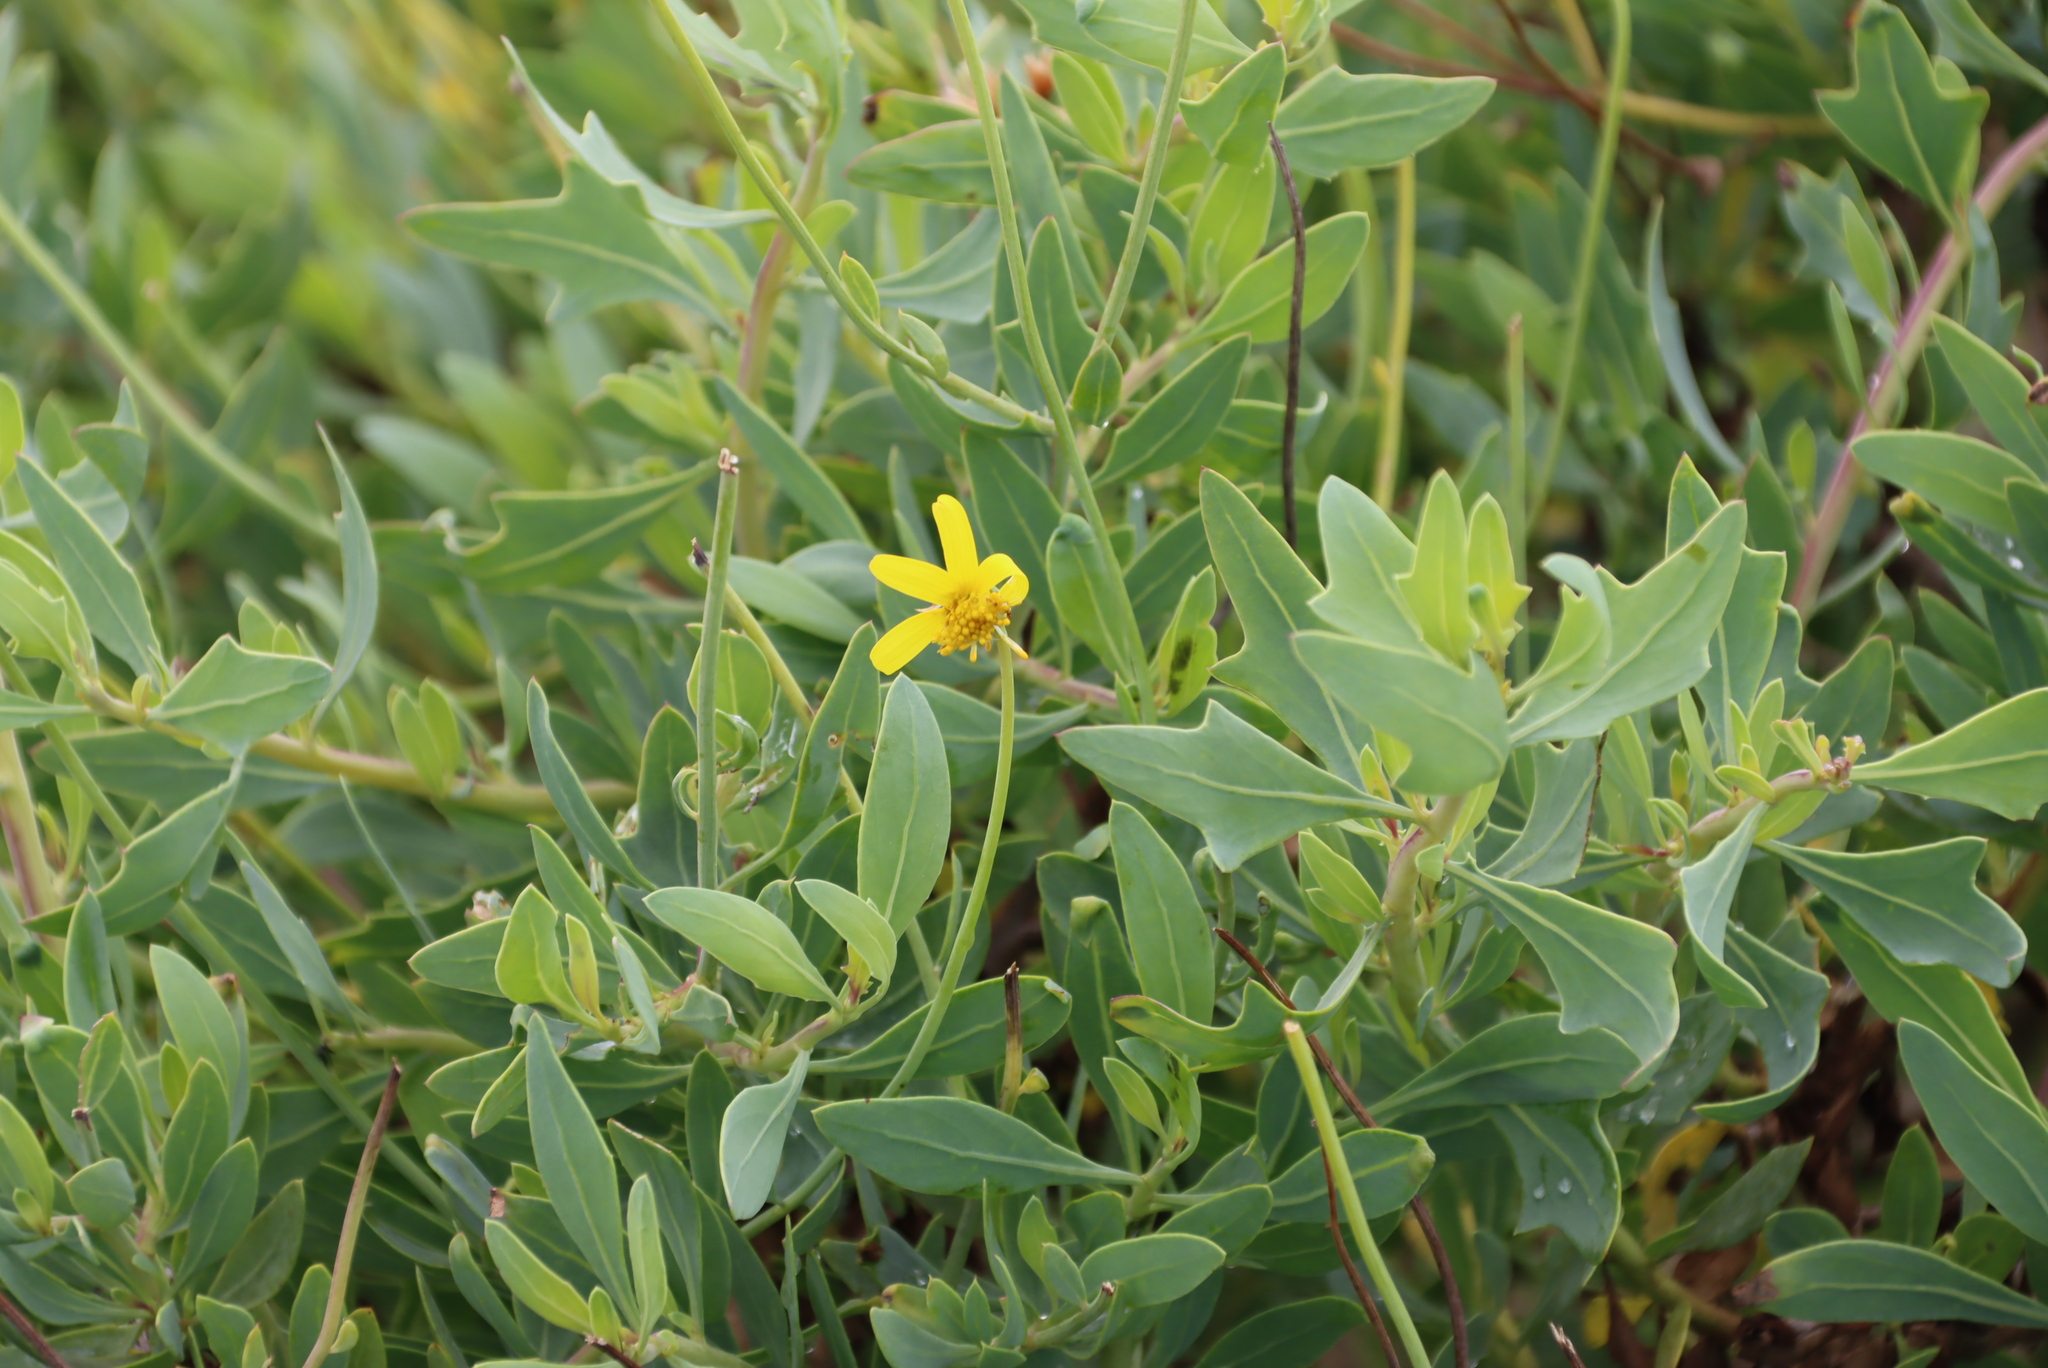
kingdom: Plantae
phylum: Tracheophyta
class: Magnoliopsida
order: Asterales
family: Asteraceae
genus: Othonna
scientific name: Othonna coronopifolia
